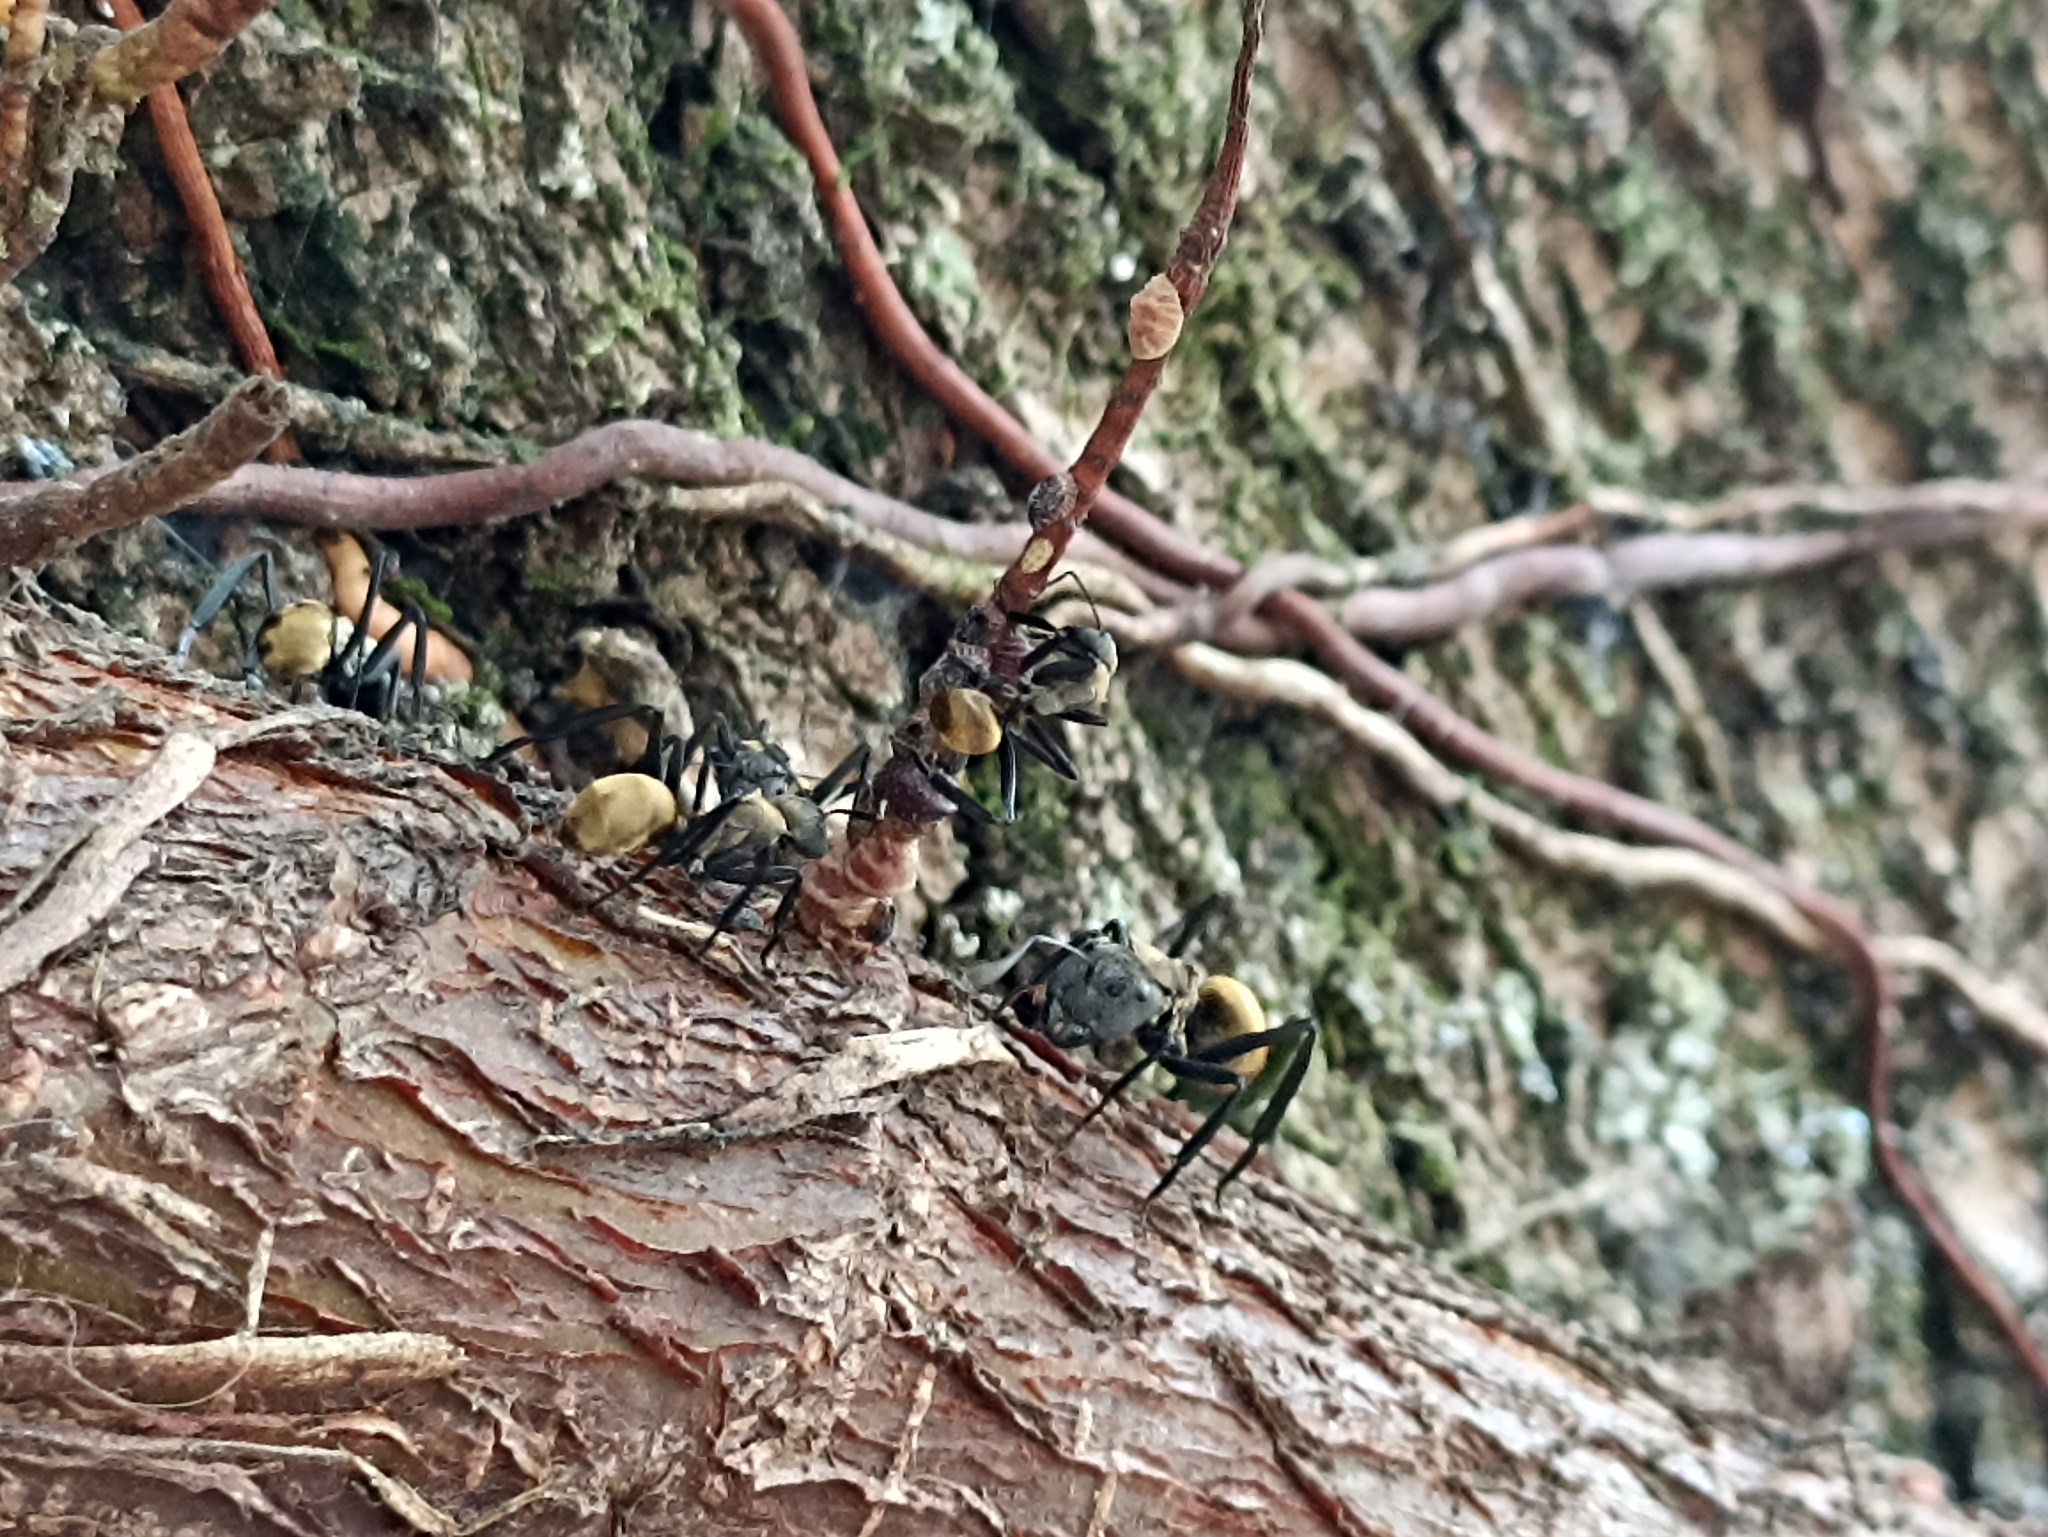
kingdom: Animalia
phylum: Arthropoda
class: Insecta
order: Hymenoptera
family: Formicidae
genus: Camponotus
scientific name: Camponotus sericeiventris
